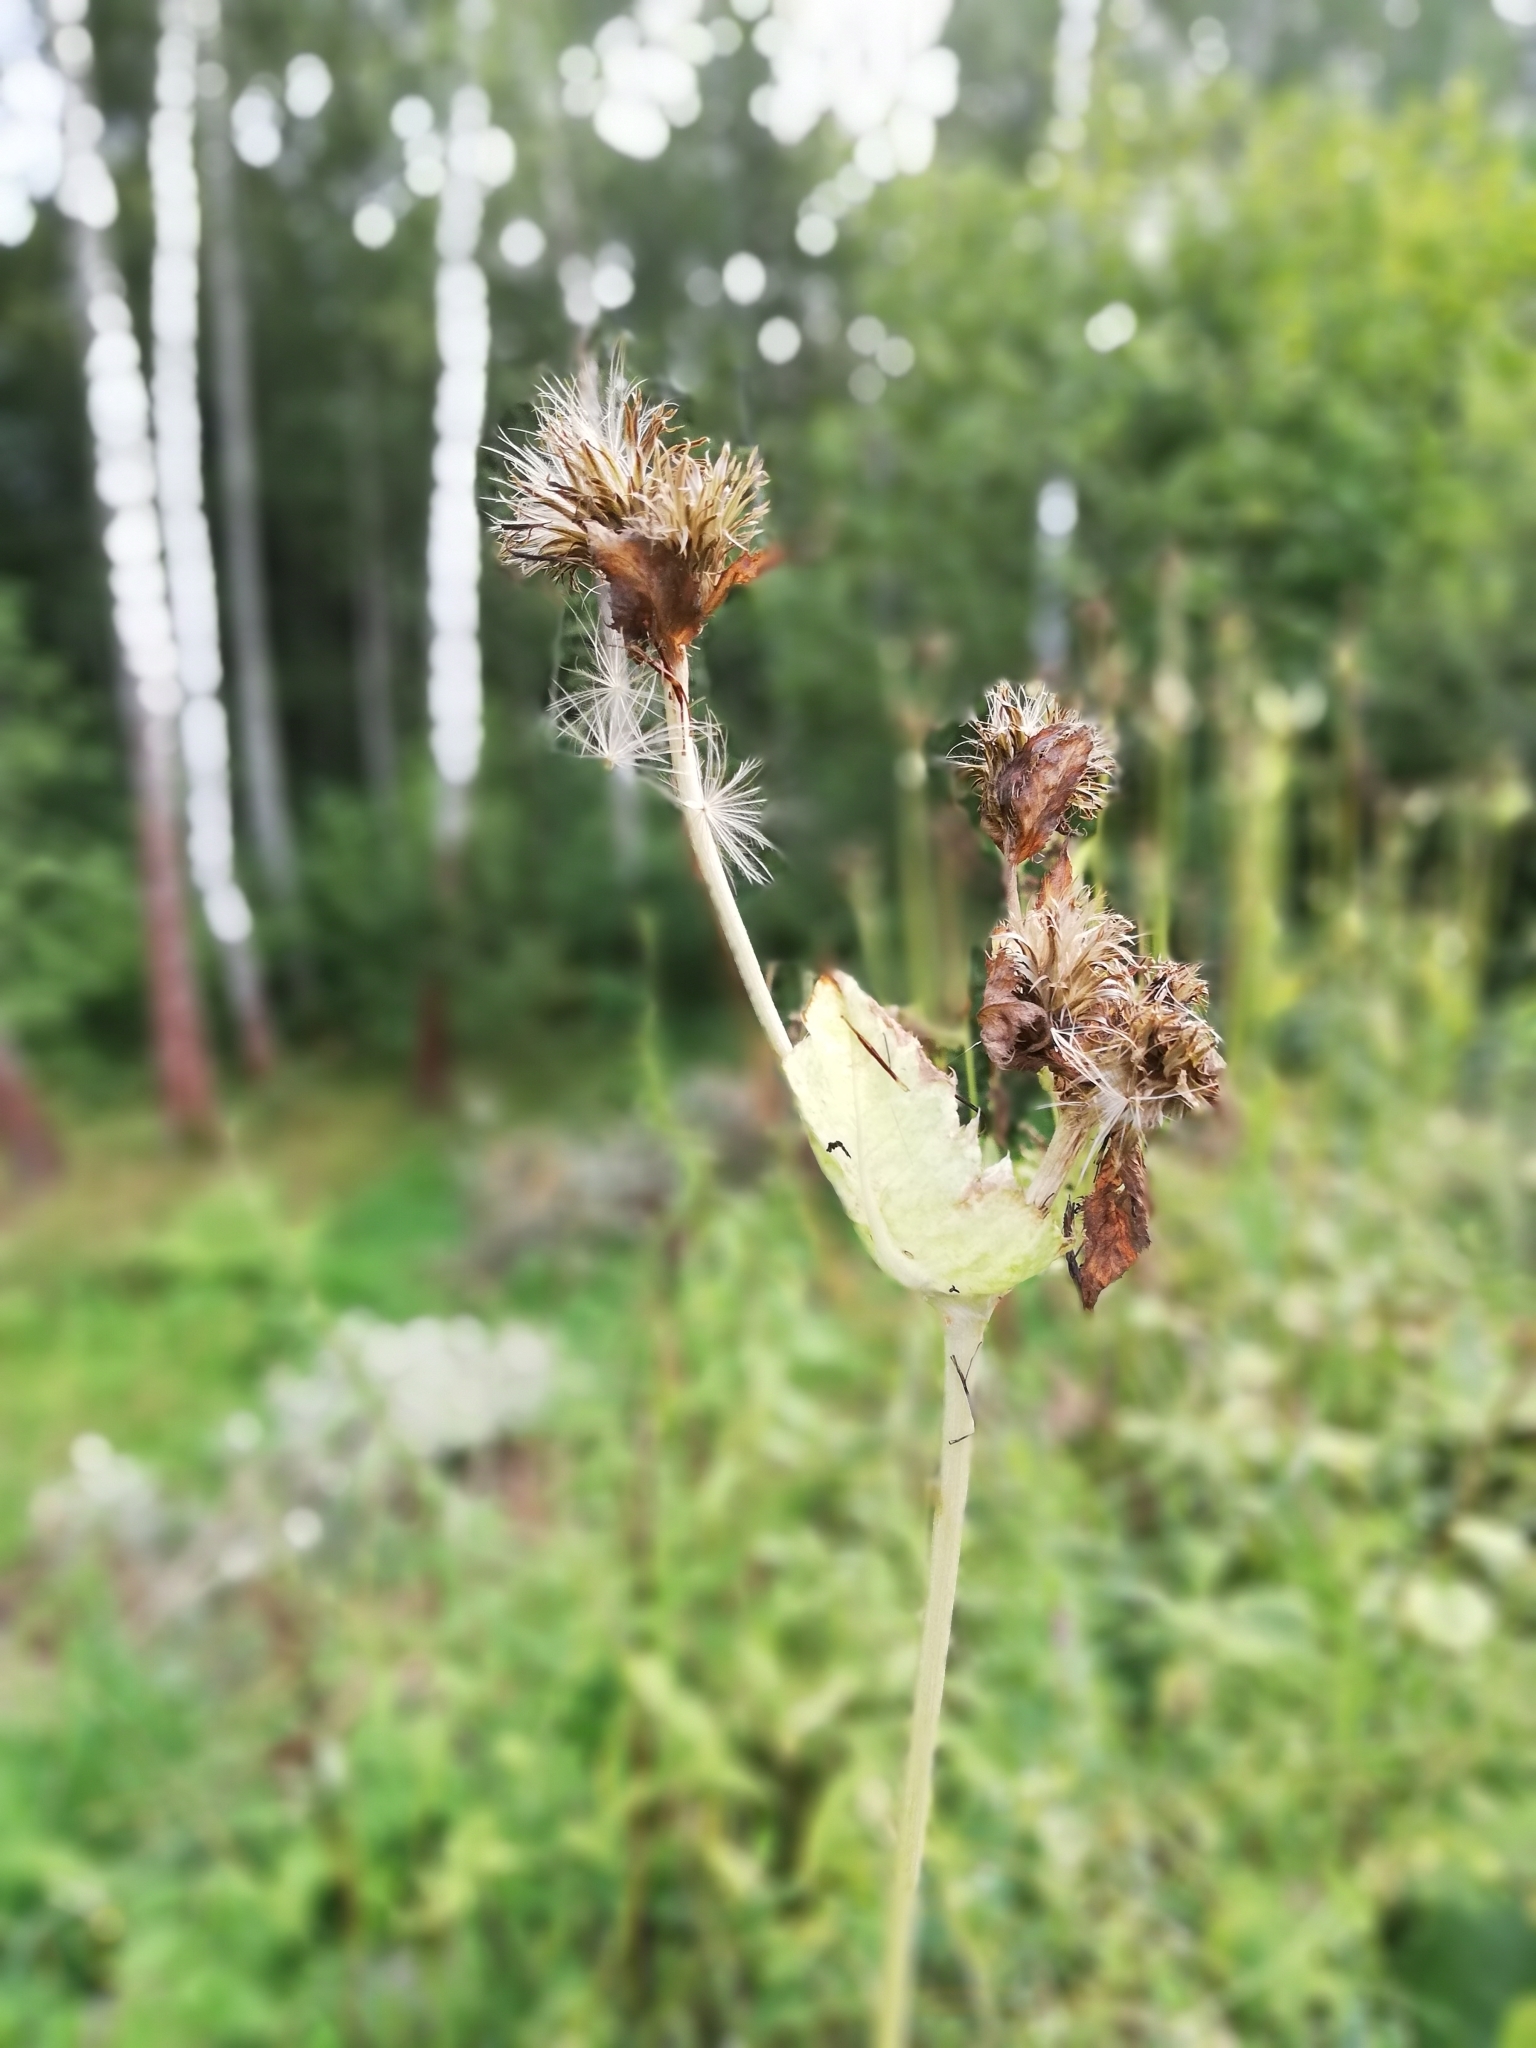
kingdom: Plantae
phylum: Tracheophyta
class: Magnoliopsida
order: Asterales
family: Asteraceae
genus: Cirsium
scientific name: Cirsium oleraceum
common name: Cabbage thistle
